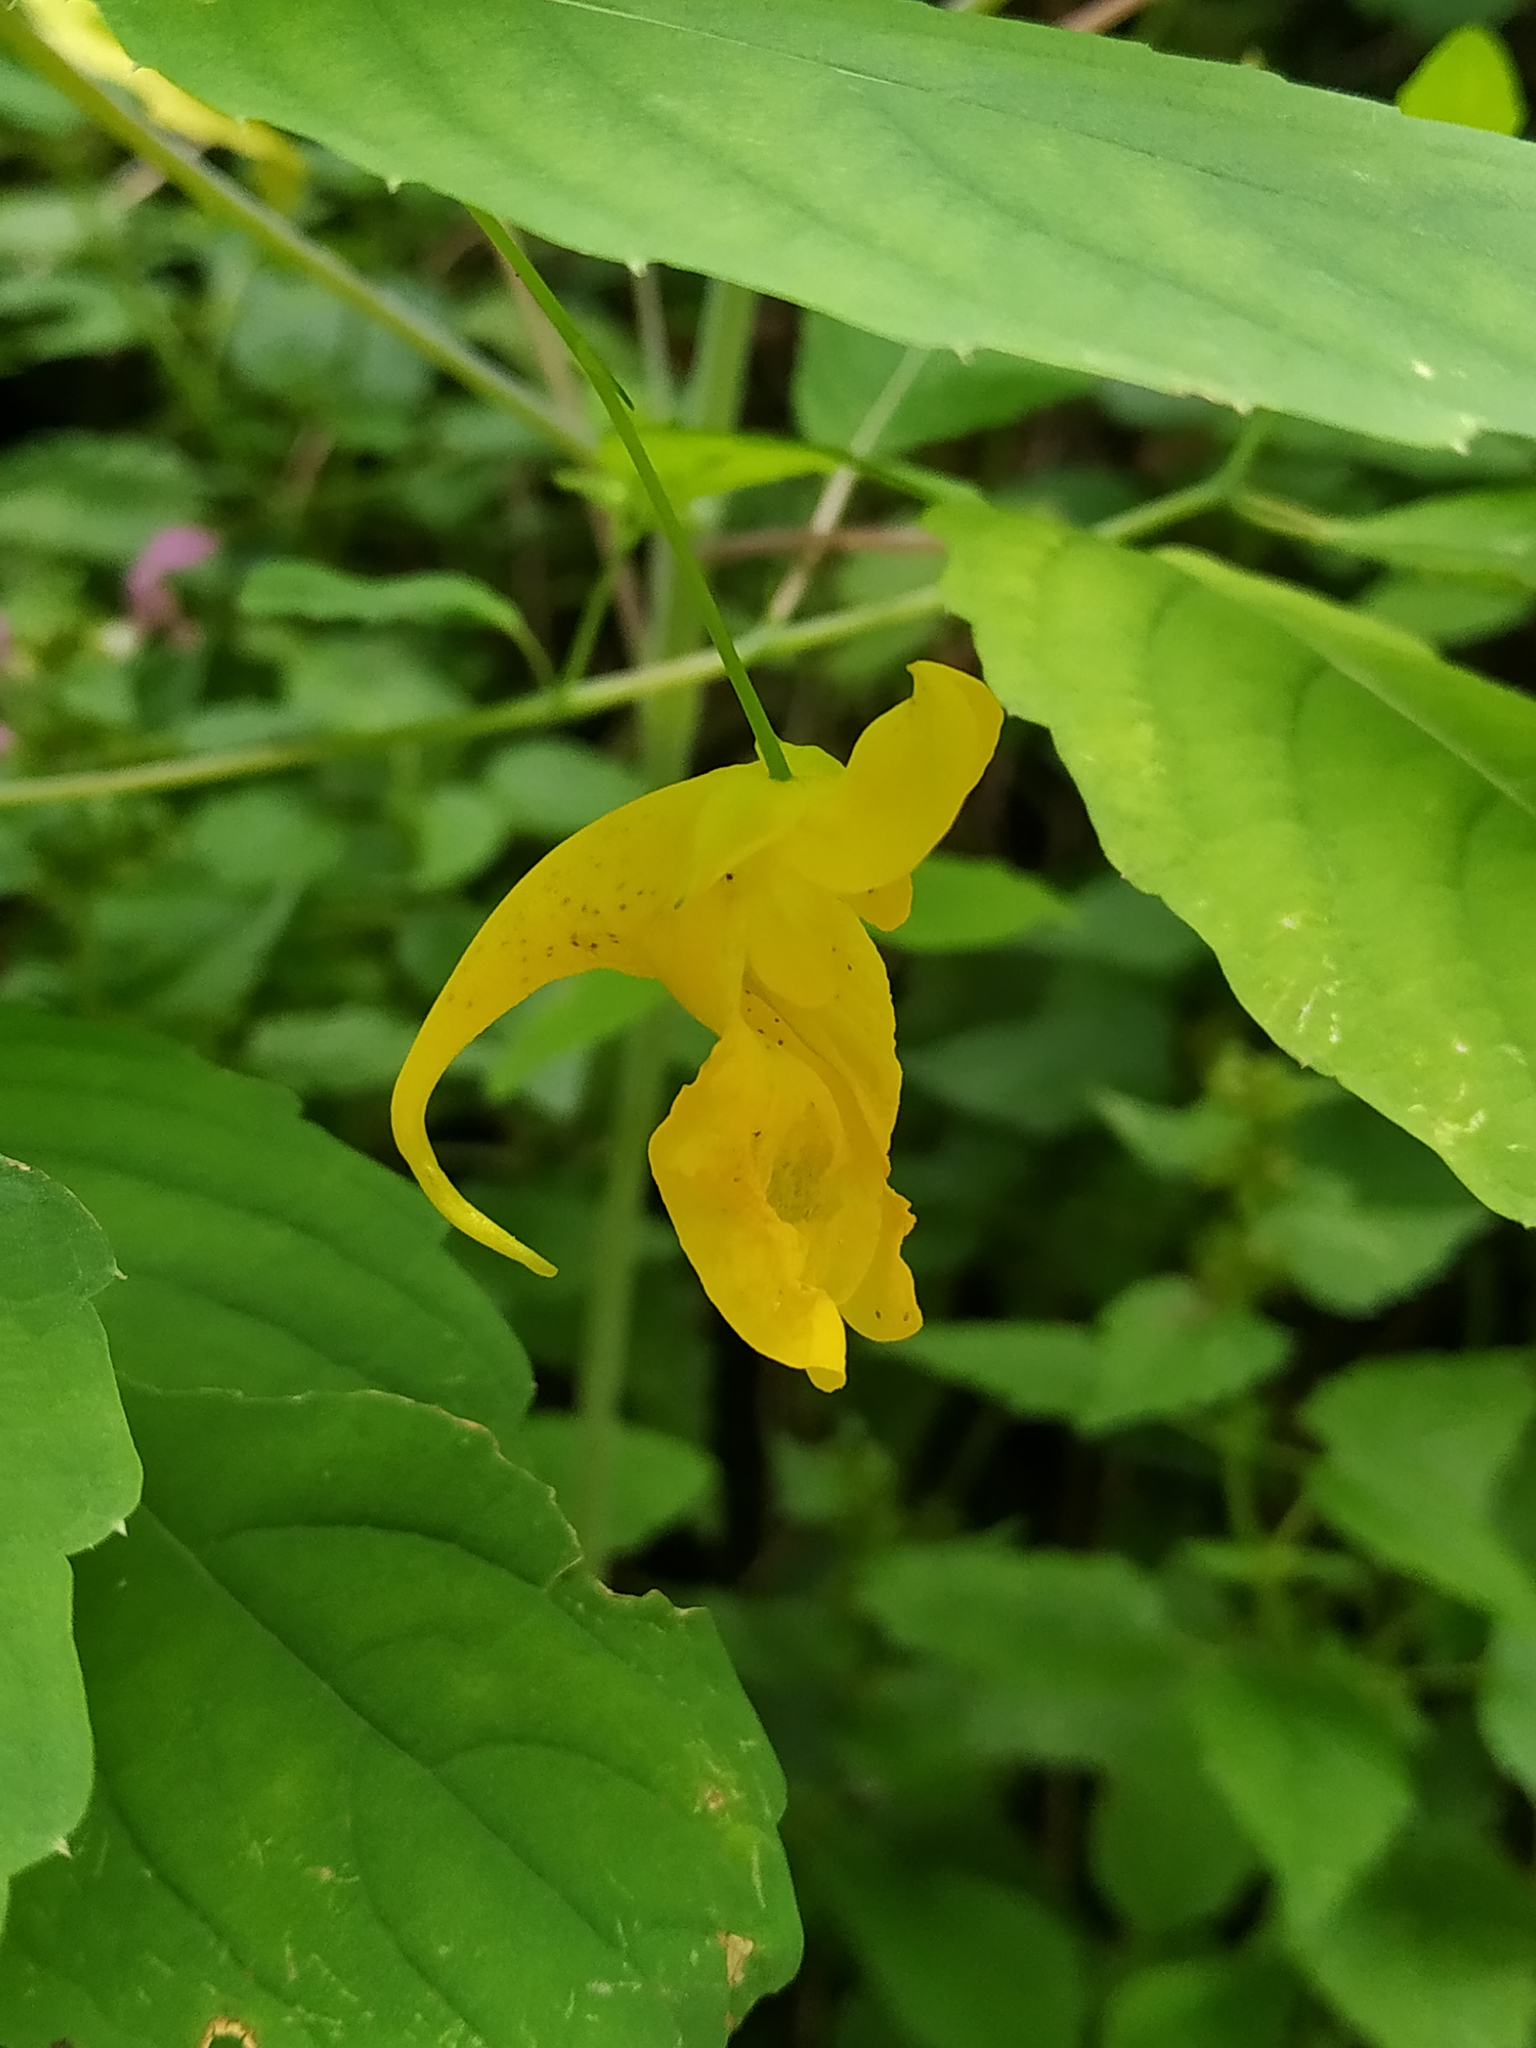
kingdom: Plantae
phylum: Tracheophyta
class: Magnoliopsida
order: Ericales
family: Balsaminaceae
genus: Impatiens
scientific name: Impatiens noli-tangere
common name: Touch-me-not balsam
